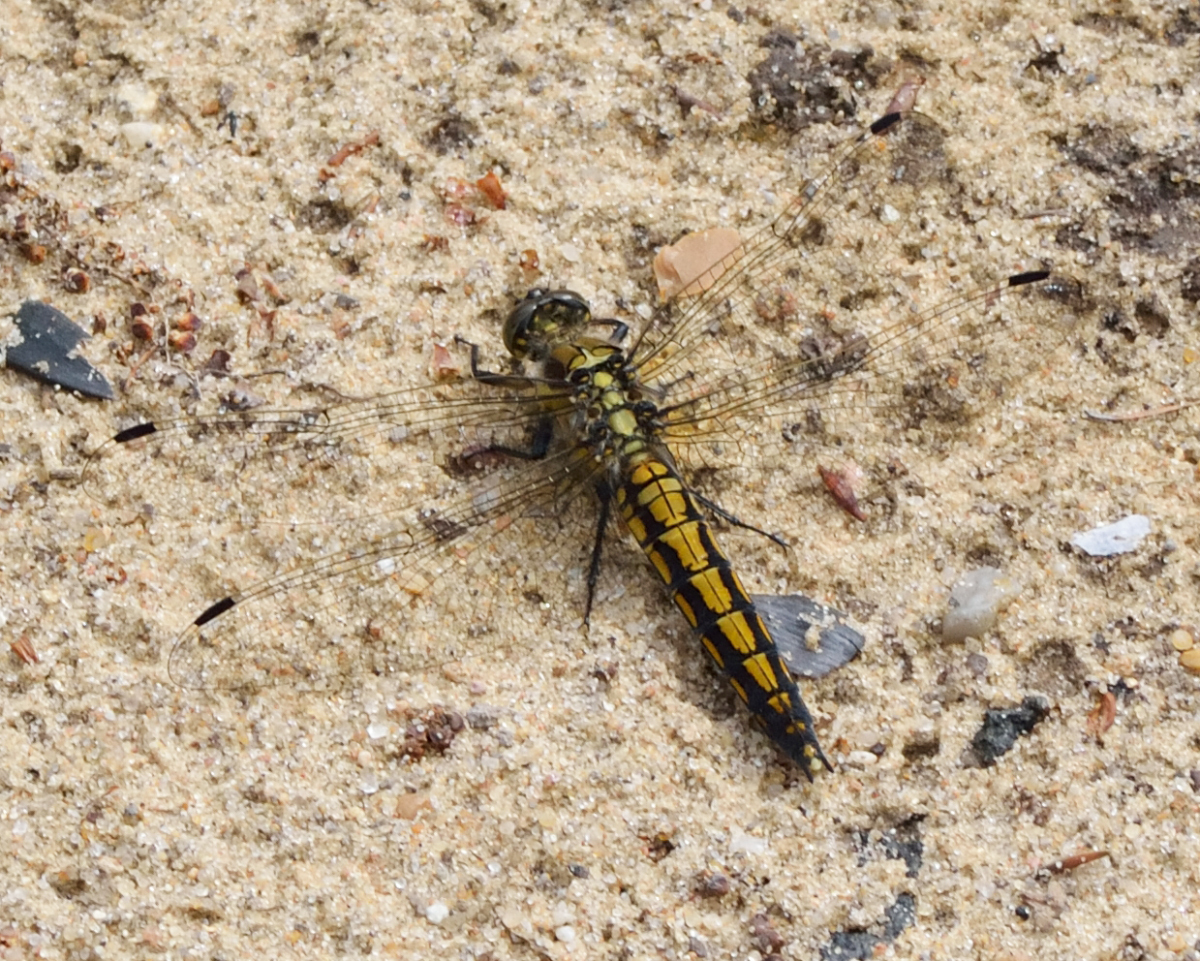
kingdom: Animalia
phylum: Arthropoda
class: Insecta
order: Odonata
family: Libellulidae
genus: Orthetrum
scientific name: Orthetrum cancellatum
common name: Black-tailed skimmer
